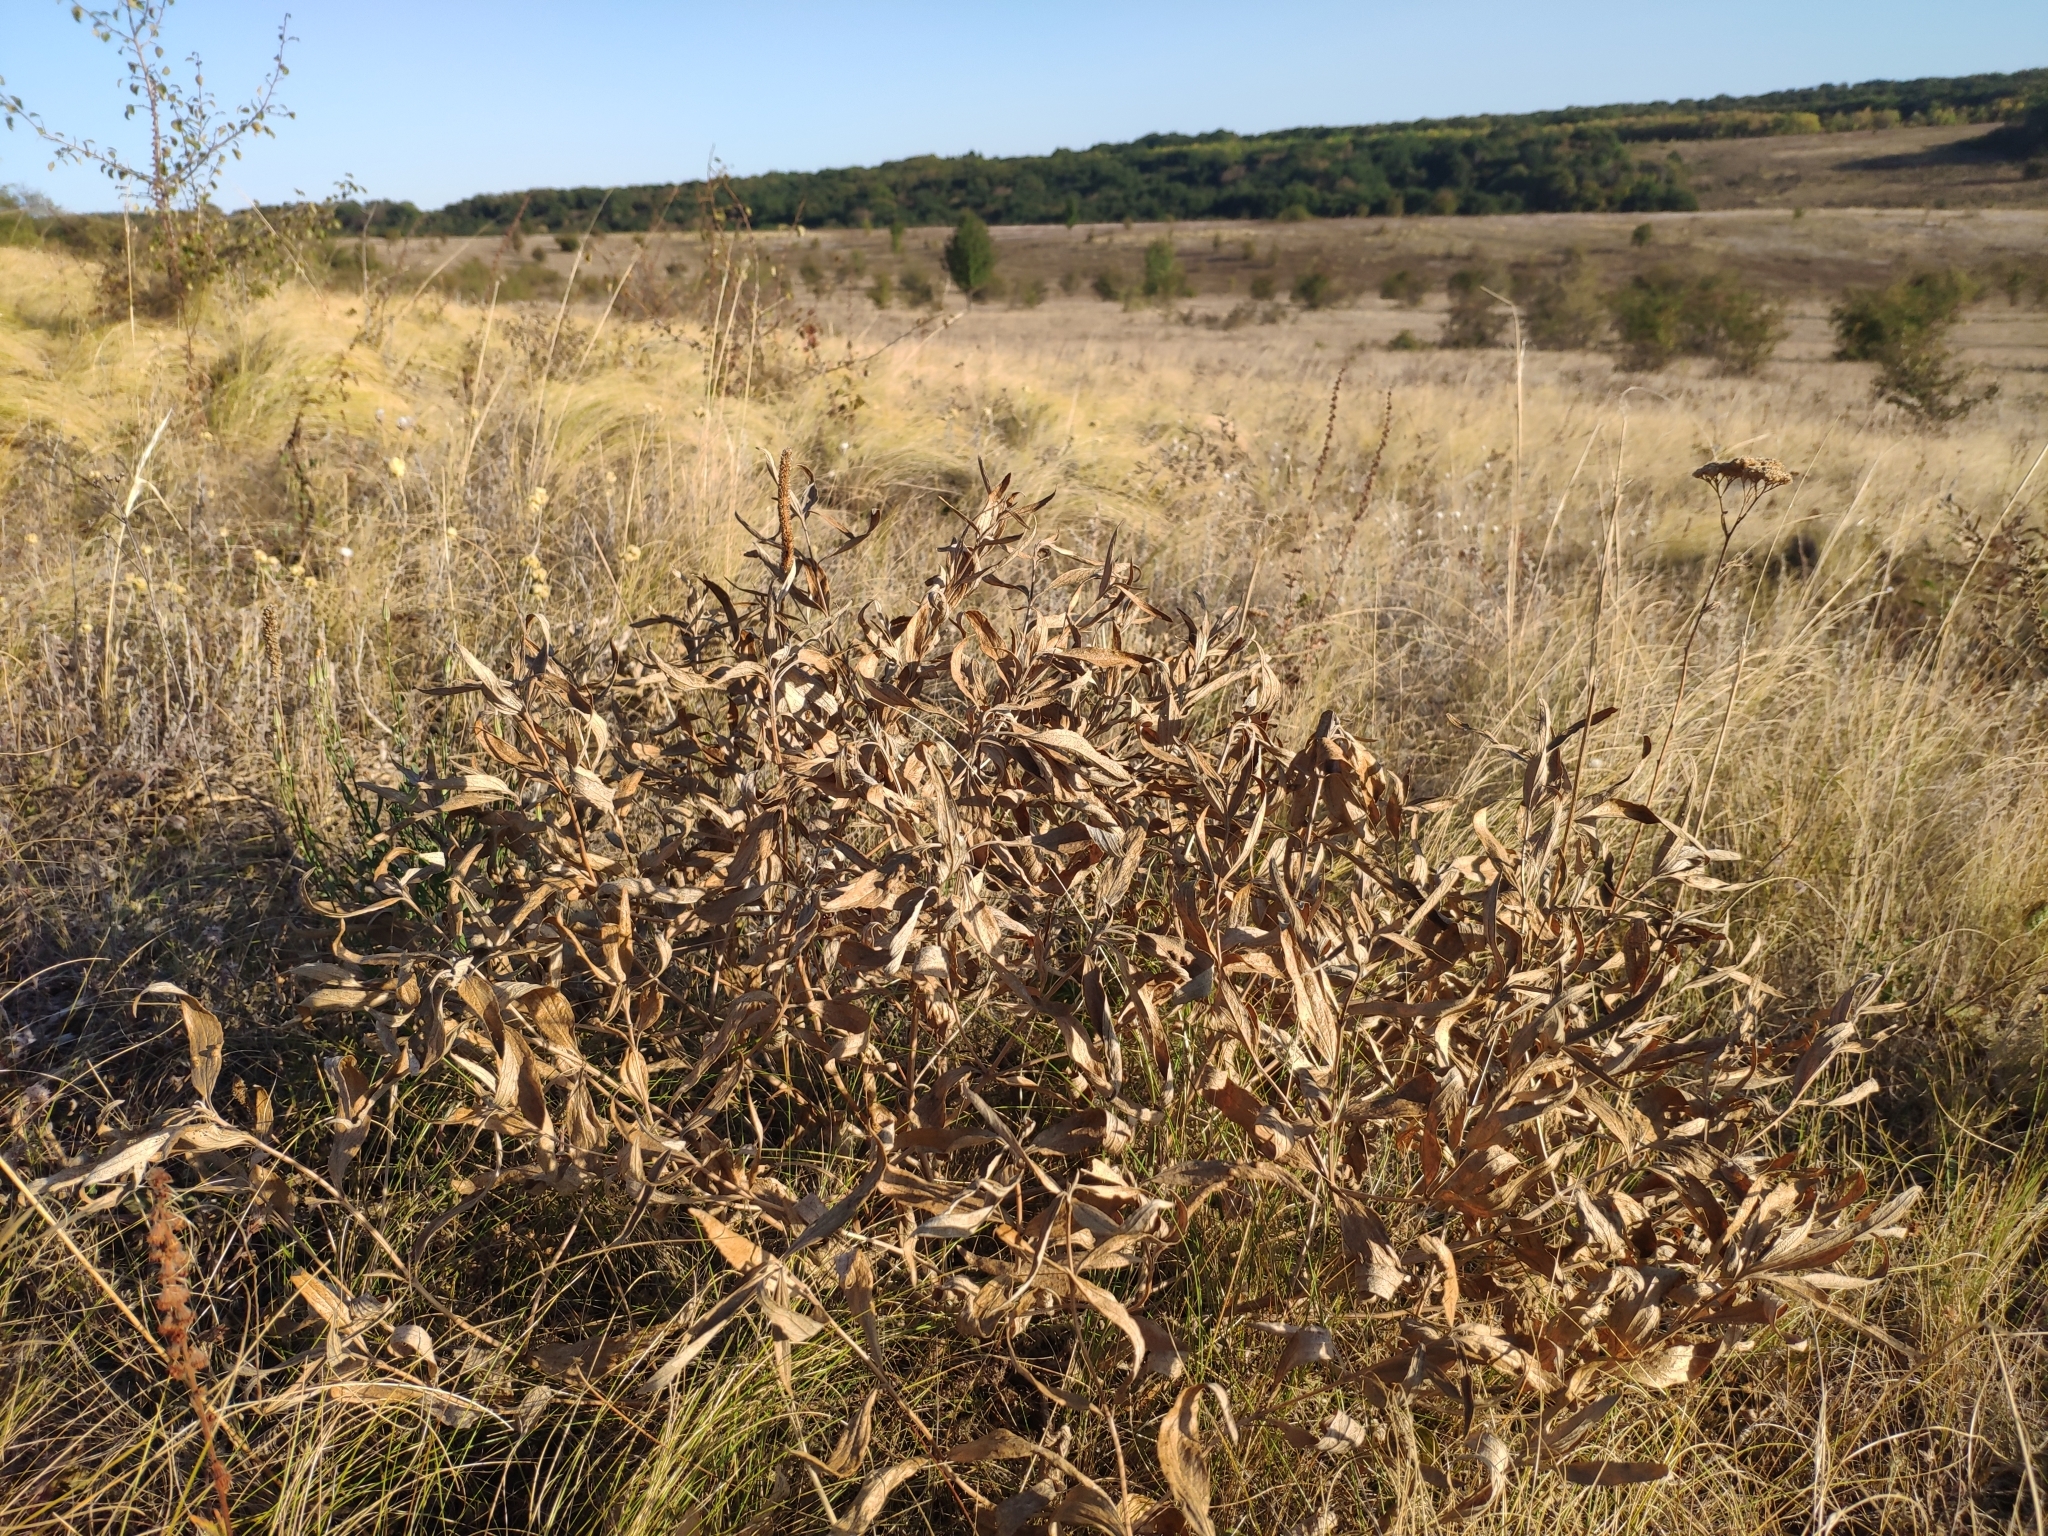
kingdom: Plantae
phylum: Tracheophyta
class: Magnoliopsida
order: Lamiales
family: Lamiaceae
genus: Phlomis
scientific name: Phlomis herba-venti
